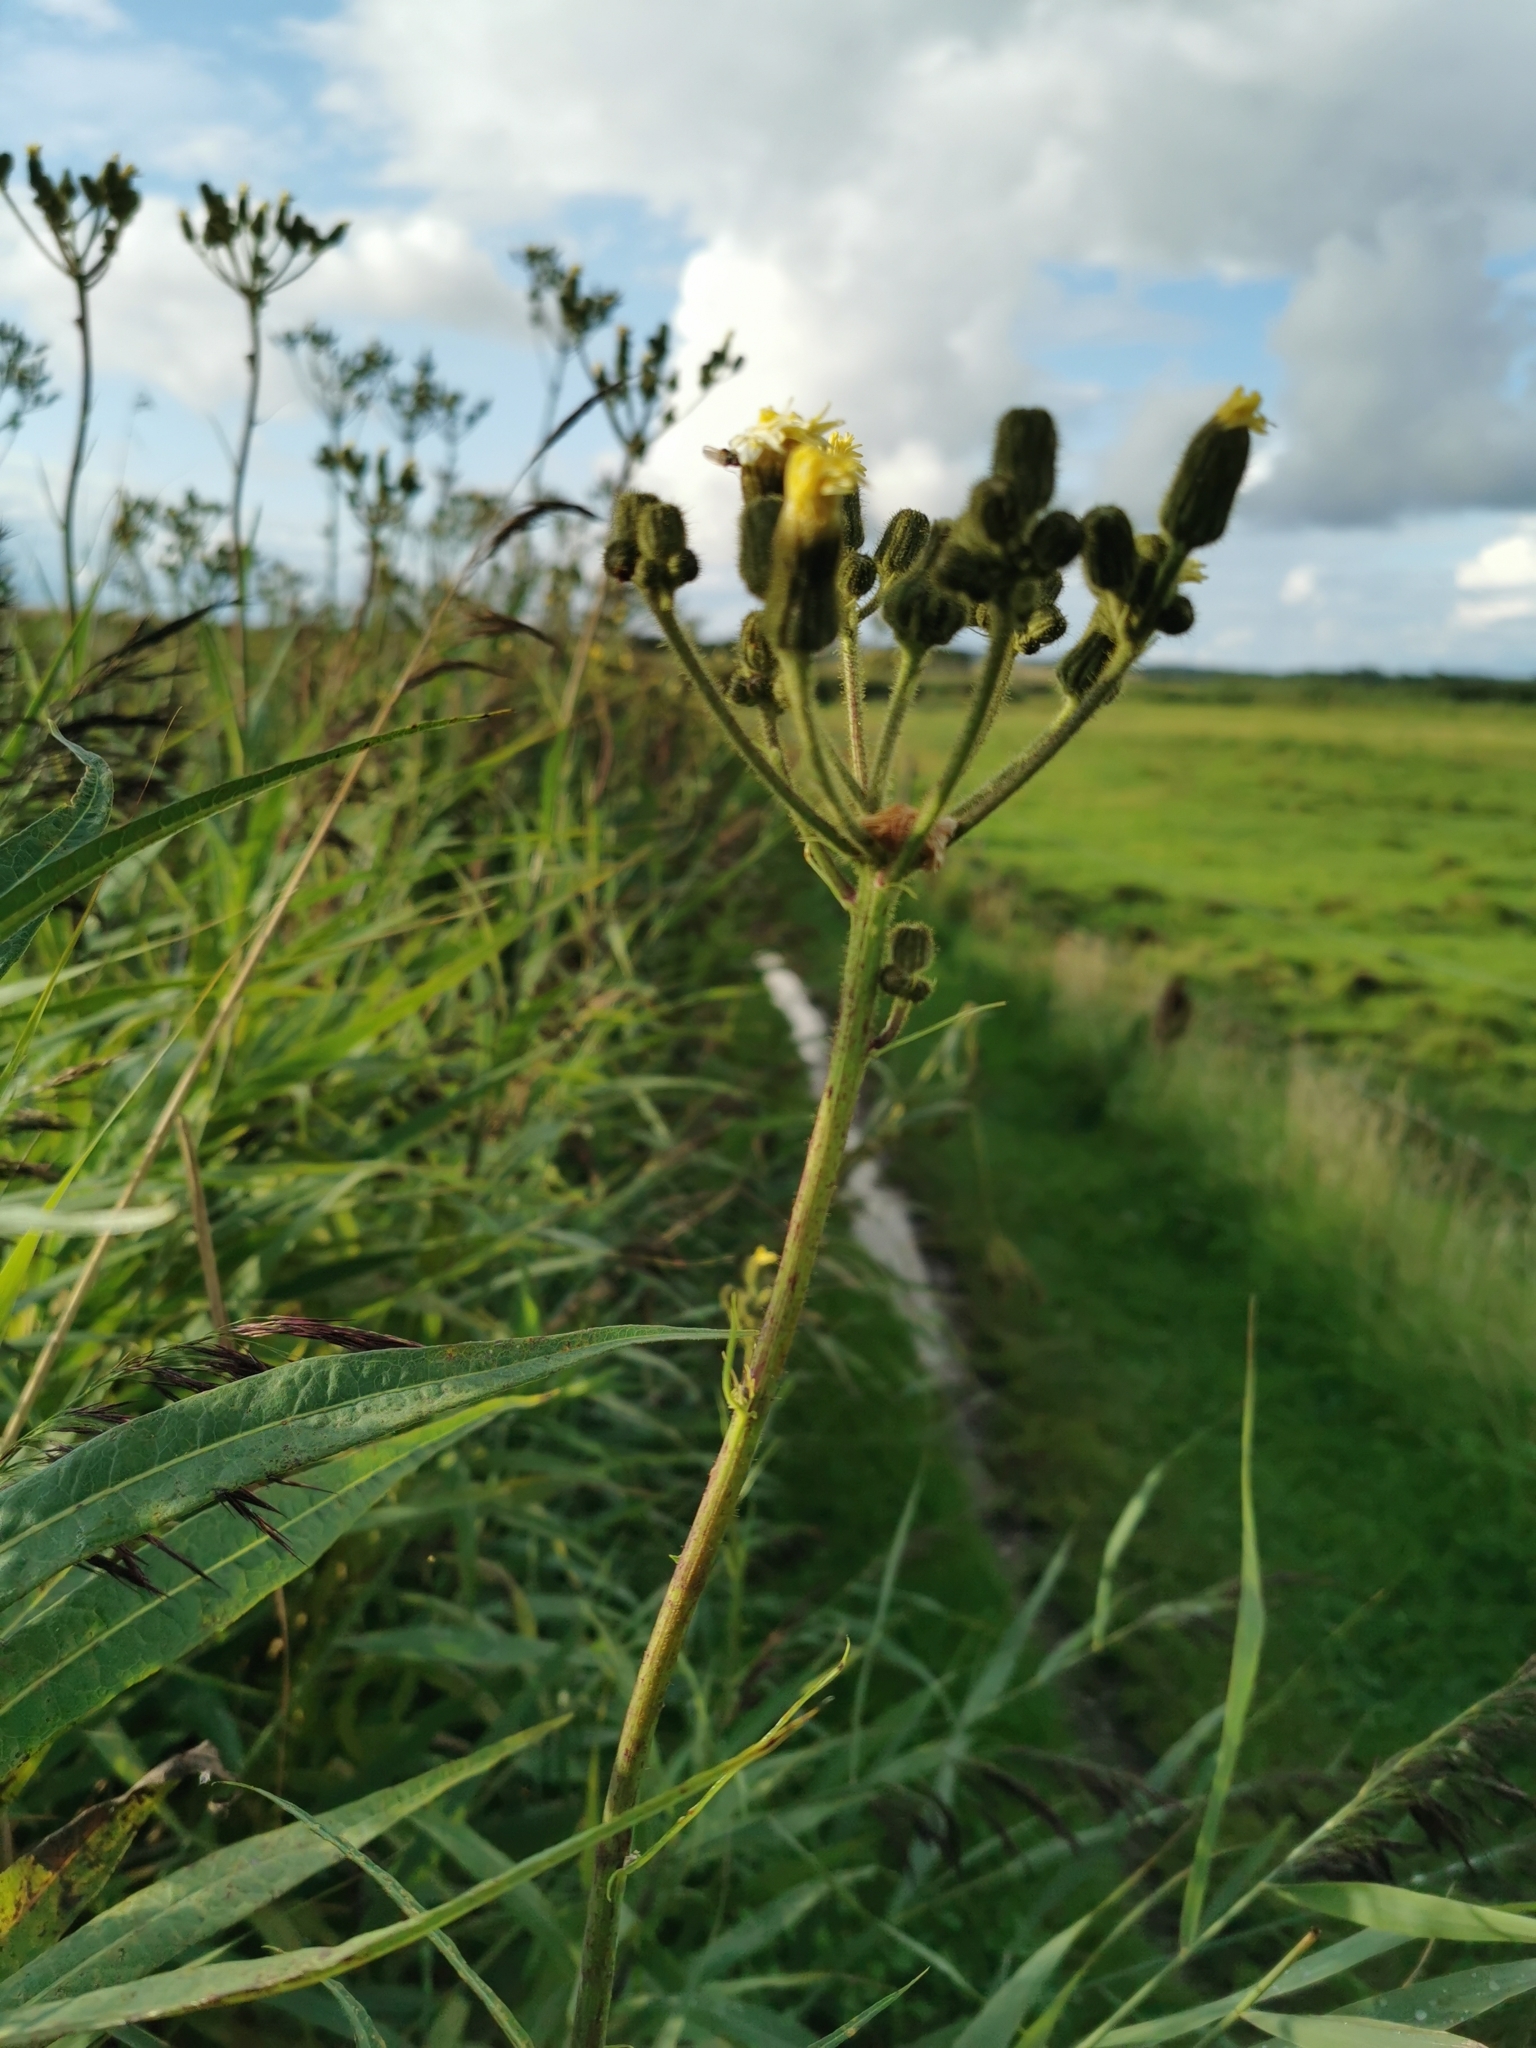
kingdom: Plantae
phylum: Tracheophyta
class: Magnoliopsida
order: Asterales
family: Asteraceae
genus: Sonchus
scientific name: Sonchus palustris
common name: Marsh sow-thistle
